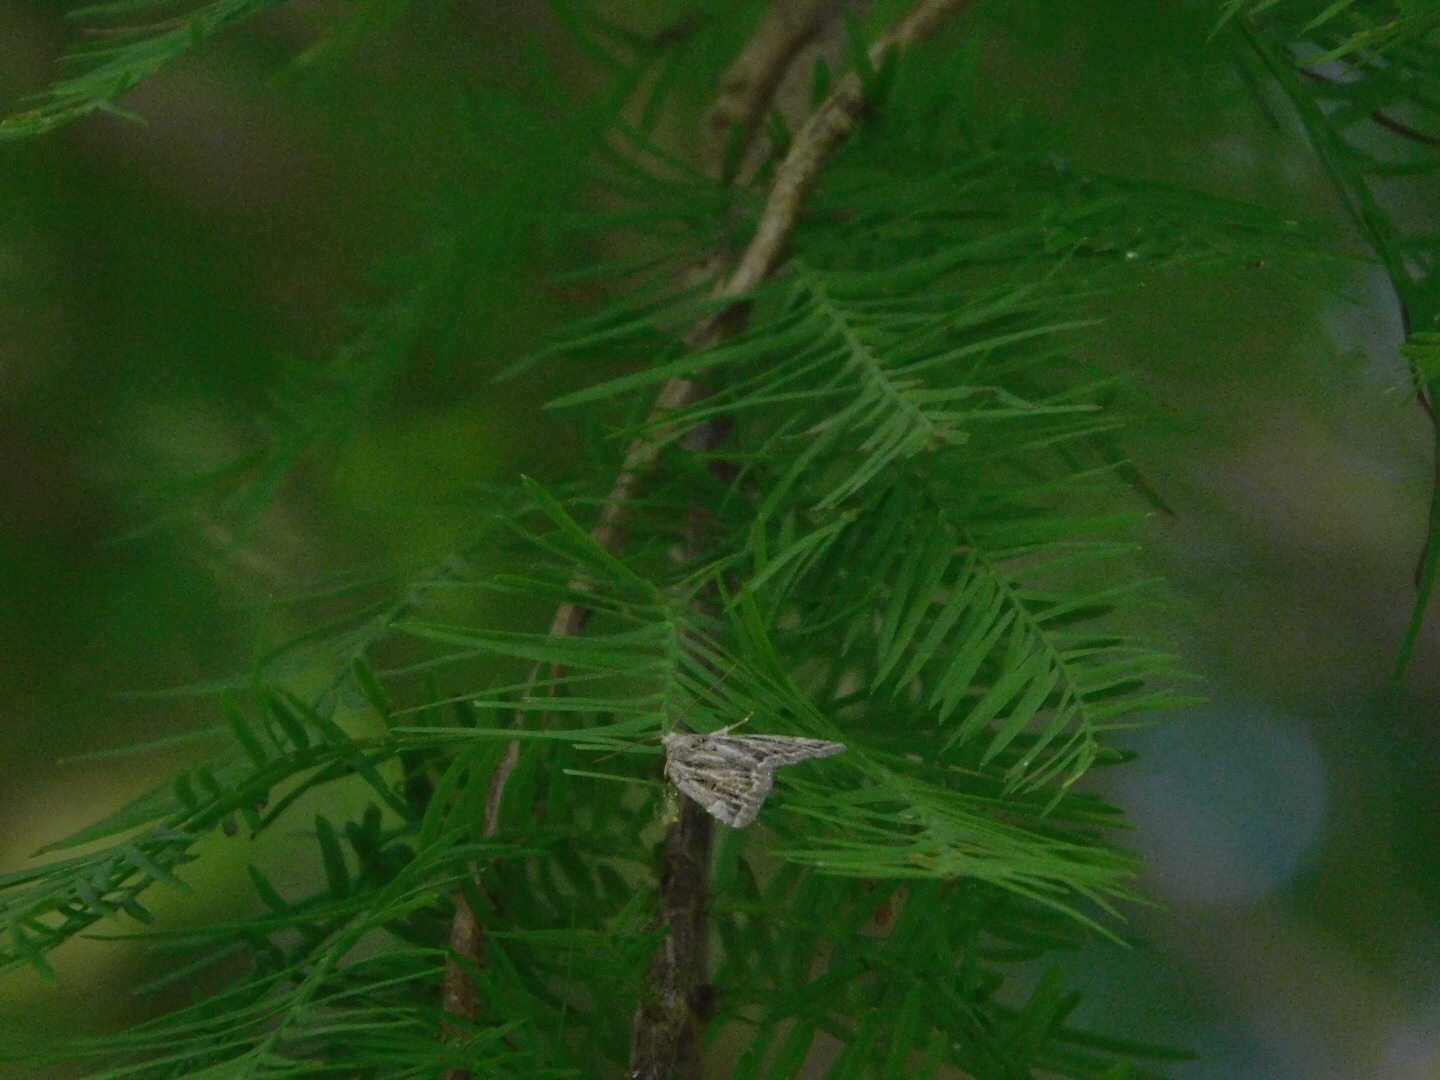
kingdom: Animalia
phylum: Arthropoda
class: Insecta
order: Lepidoptera
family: Erebidae
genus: Cutina
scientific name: Cutina albopunctella
